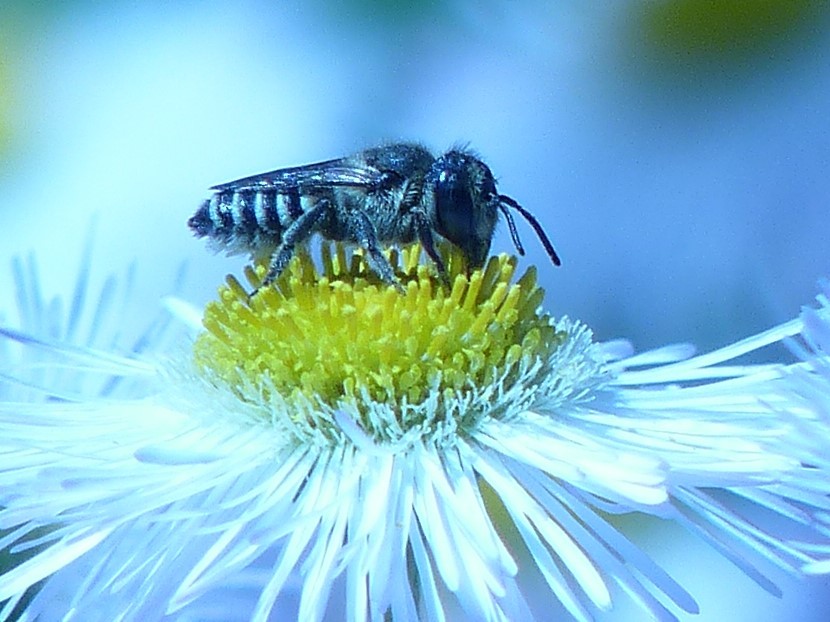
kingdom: Animalia
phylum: Arthropoda
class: Insecta
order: Hymenoptera
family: Megachilidae
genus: Megachile
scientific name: Megachile rotundata
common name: Alfalfa leafcutting bee
